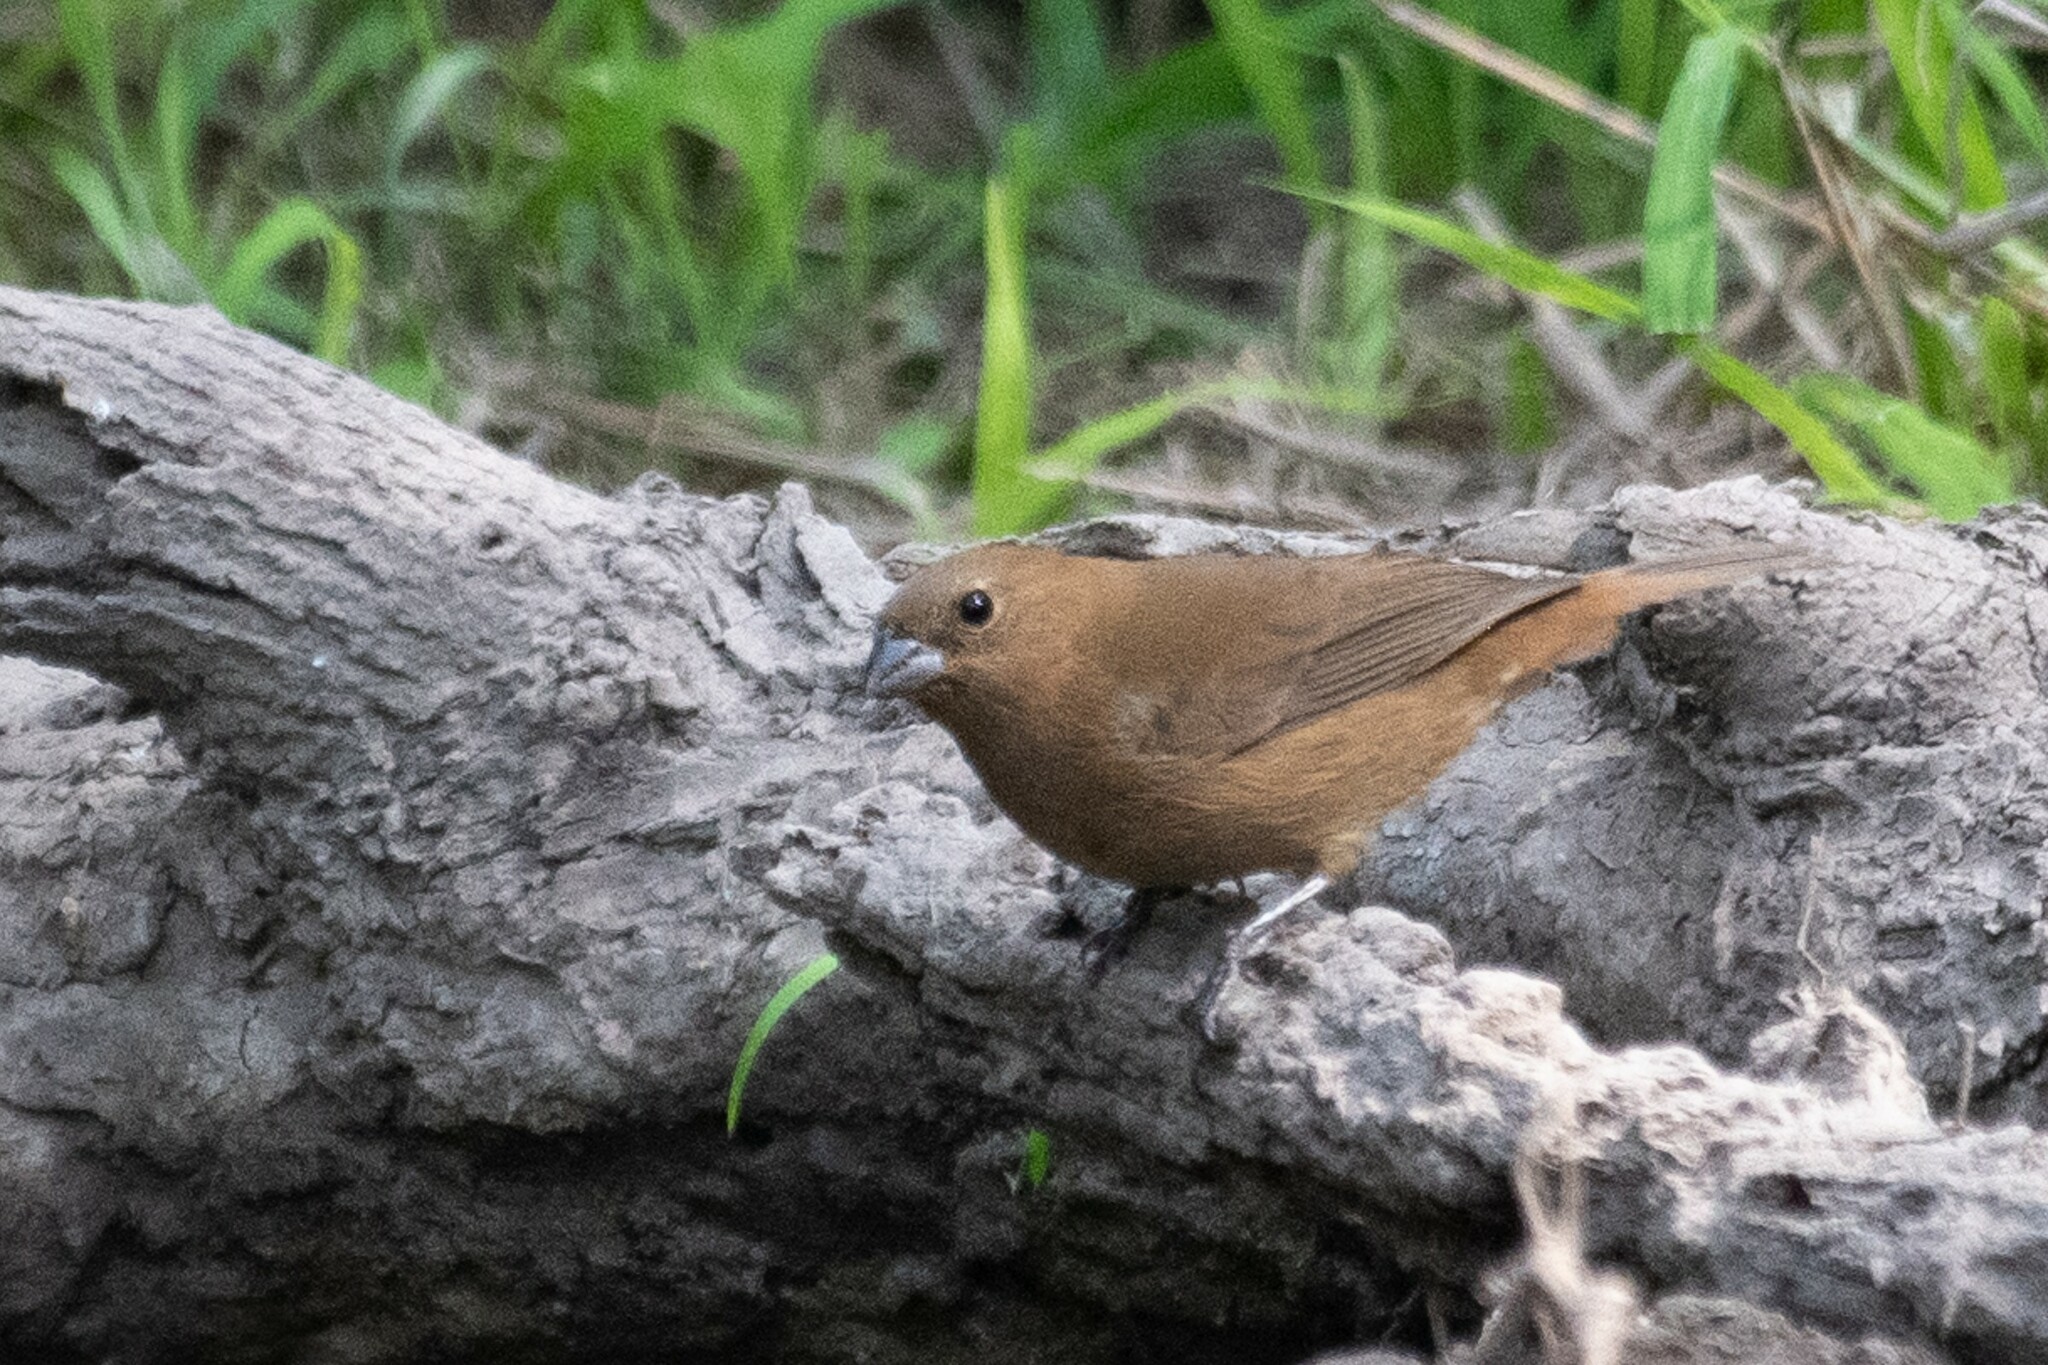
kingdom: Animalia
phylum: Chordata
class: Aves
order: Passeriformes
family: Cardinalidae
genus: Cyanocompsa
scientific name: Cyanocompsa parellina
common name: Blue bunting
